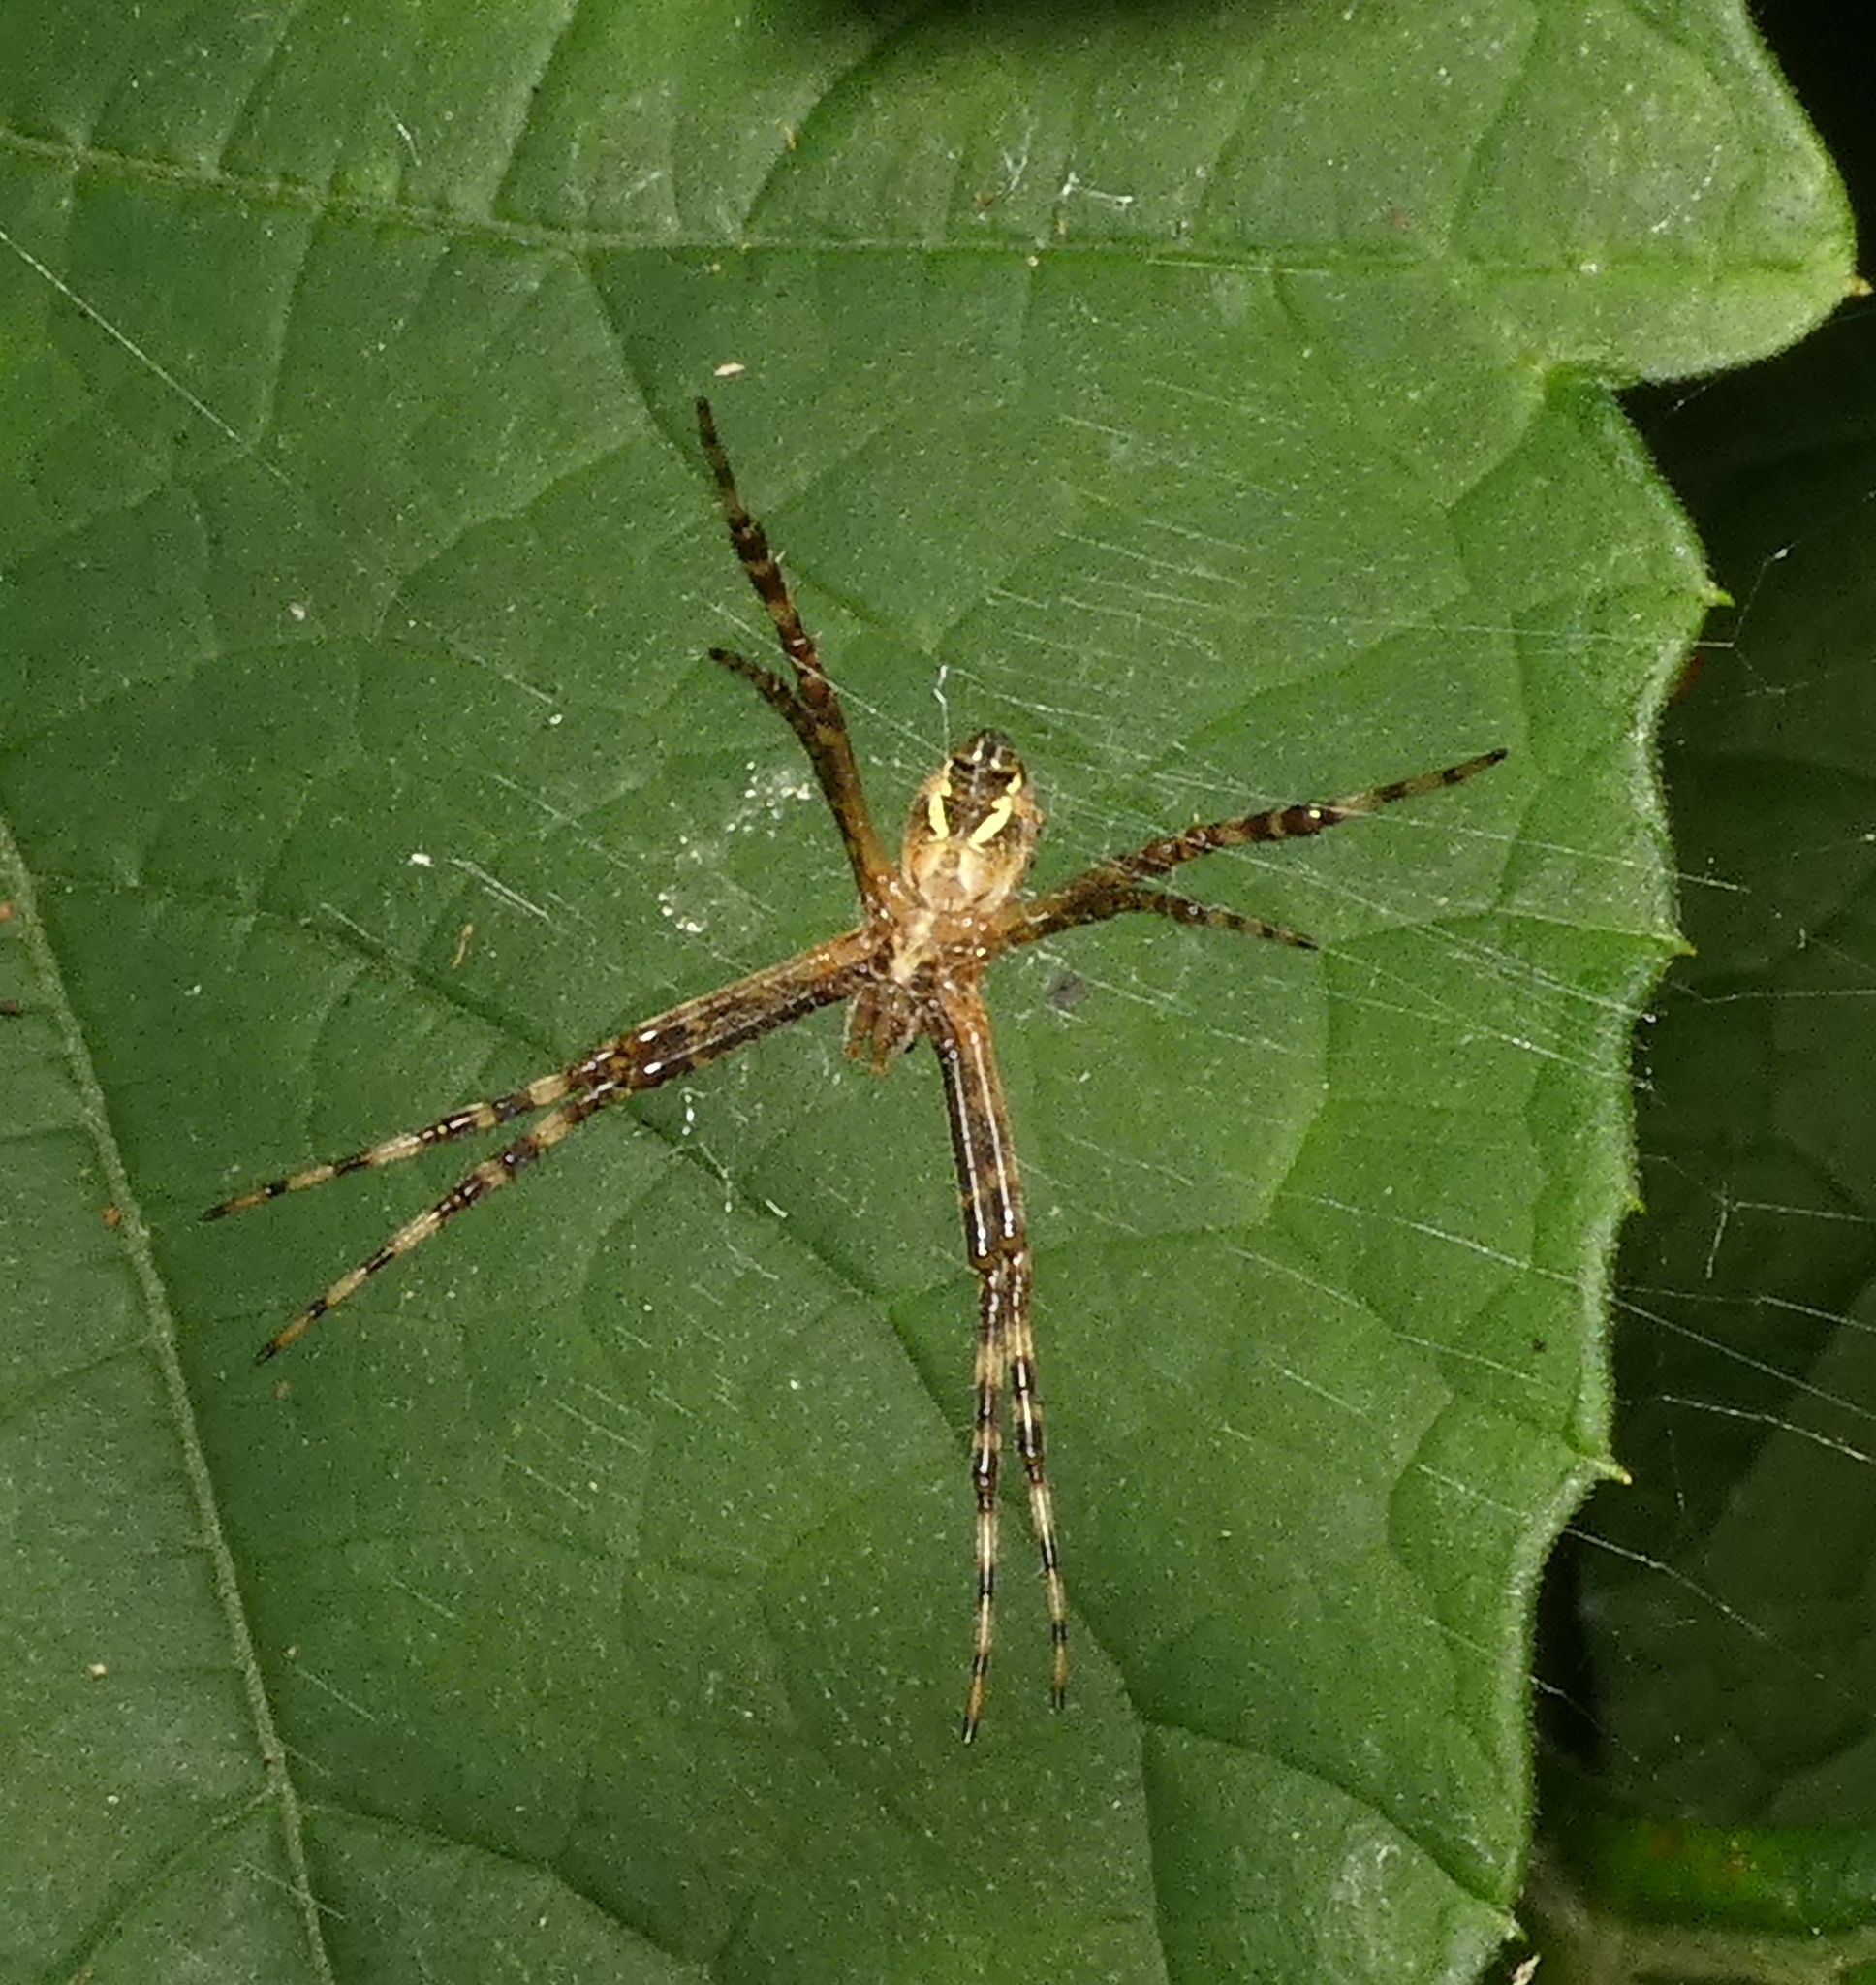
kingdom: Animalia
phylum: Arthropoda
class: Arachnida
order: Araneae
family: Araneidae
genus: Argiope
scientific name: Argiope argentata
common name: Orb weavers
